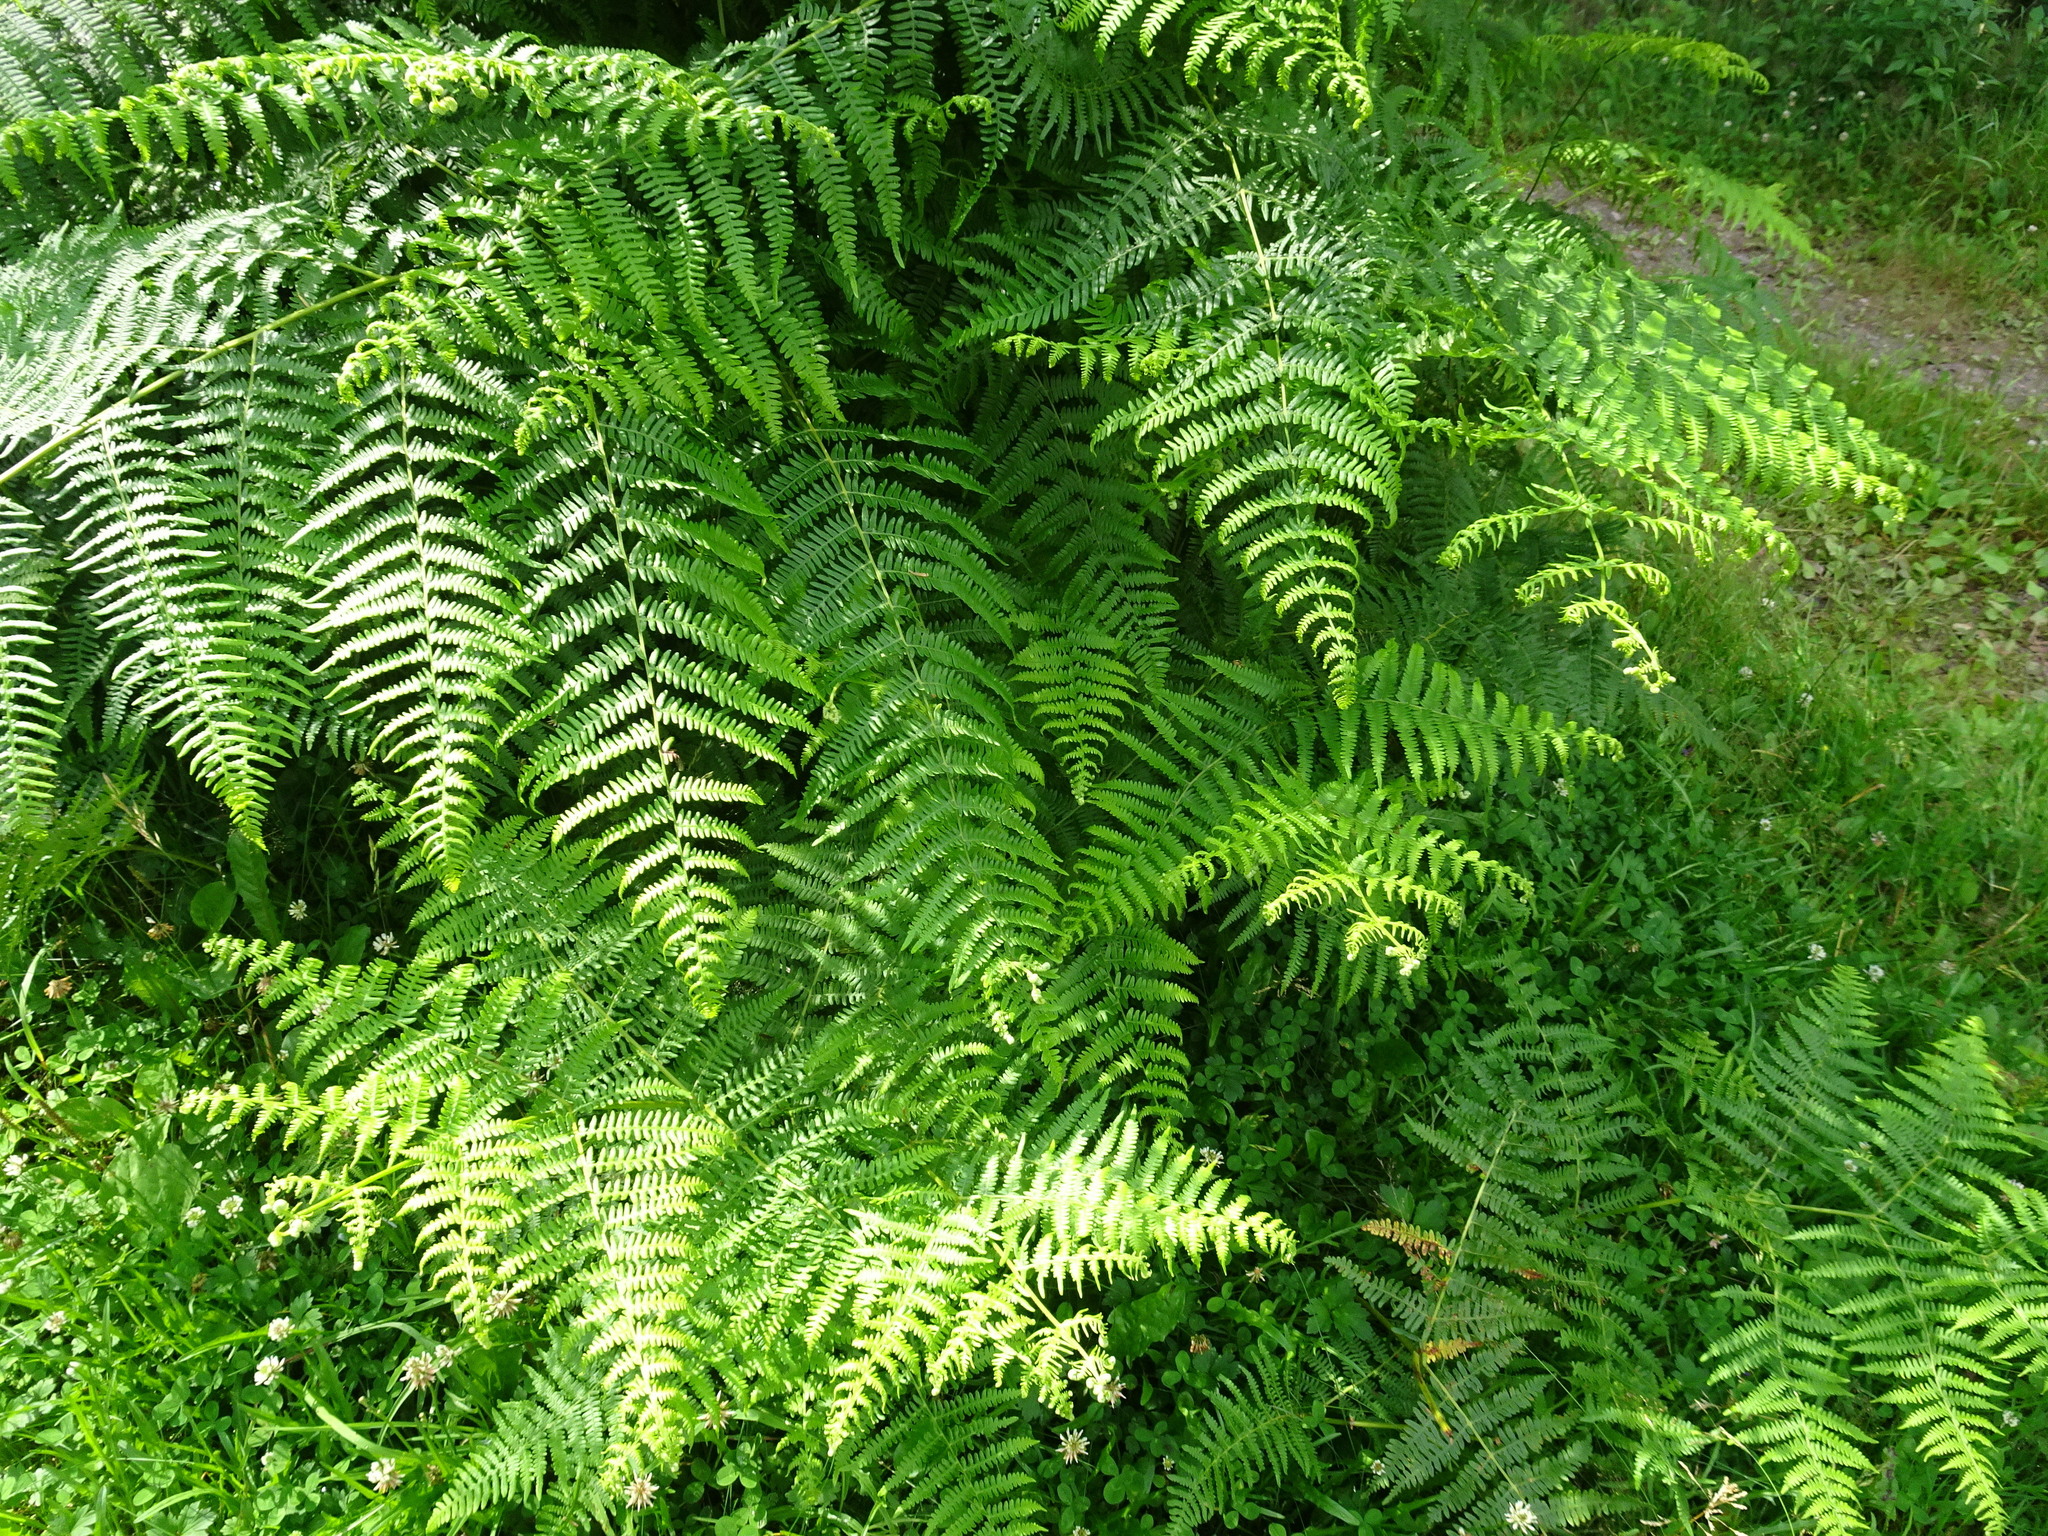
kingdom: Plantae
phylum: Tracheophyta
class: Polypodiopsida
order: Polypodiales
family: Dennstaedtiaceae
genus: Pteridium
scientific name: Pteridium aquilinum
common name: Bracken
